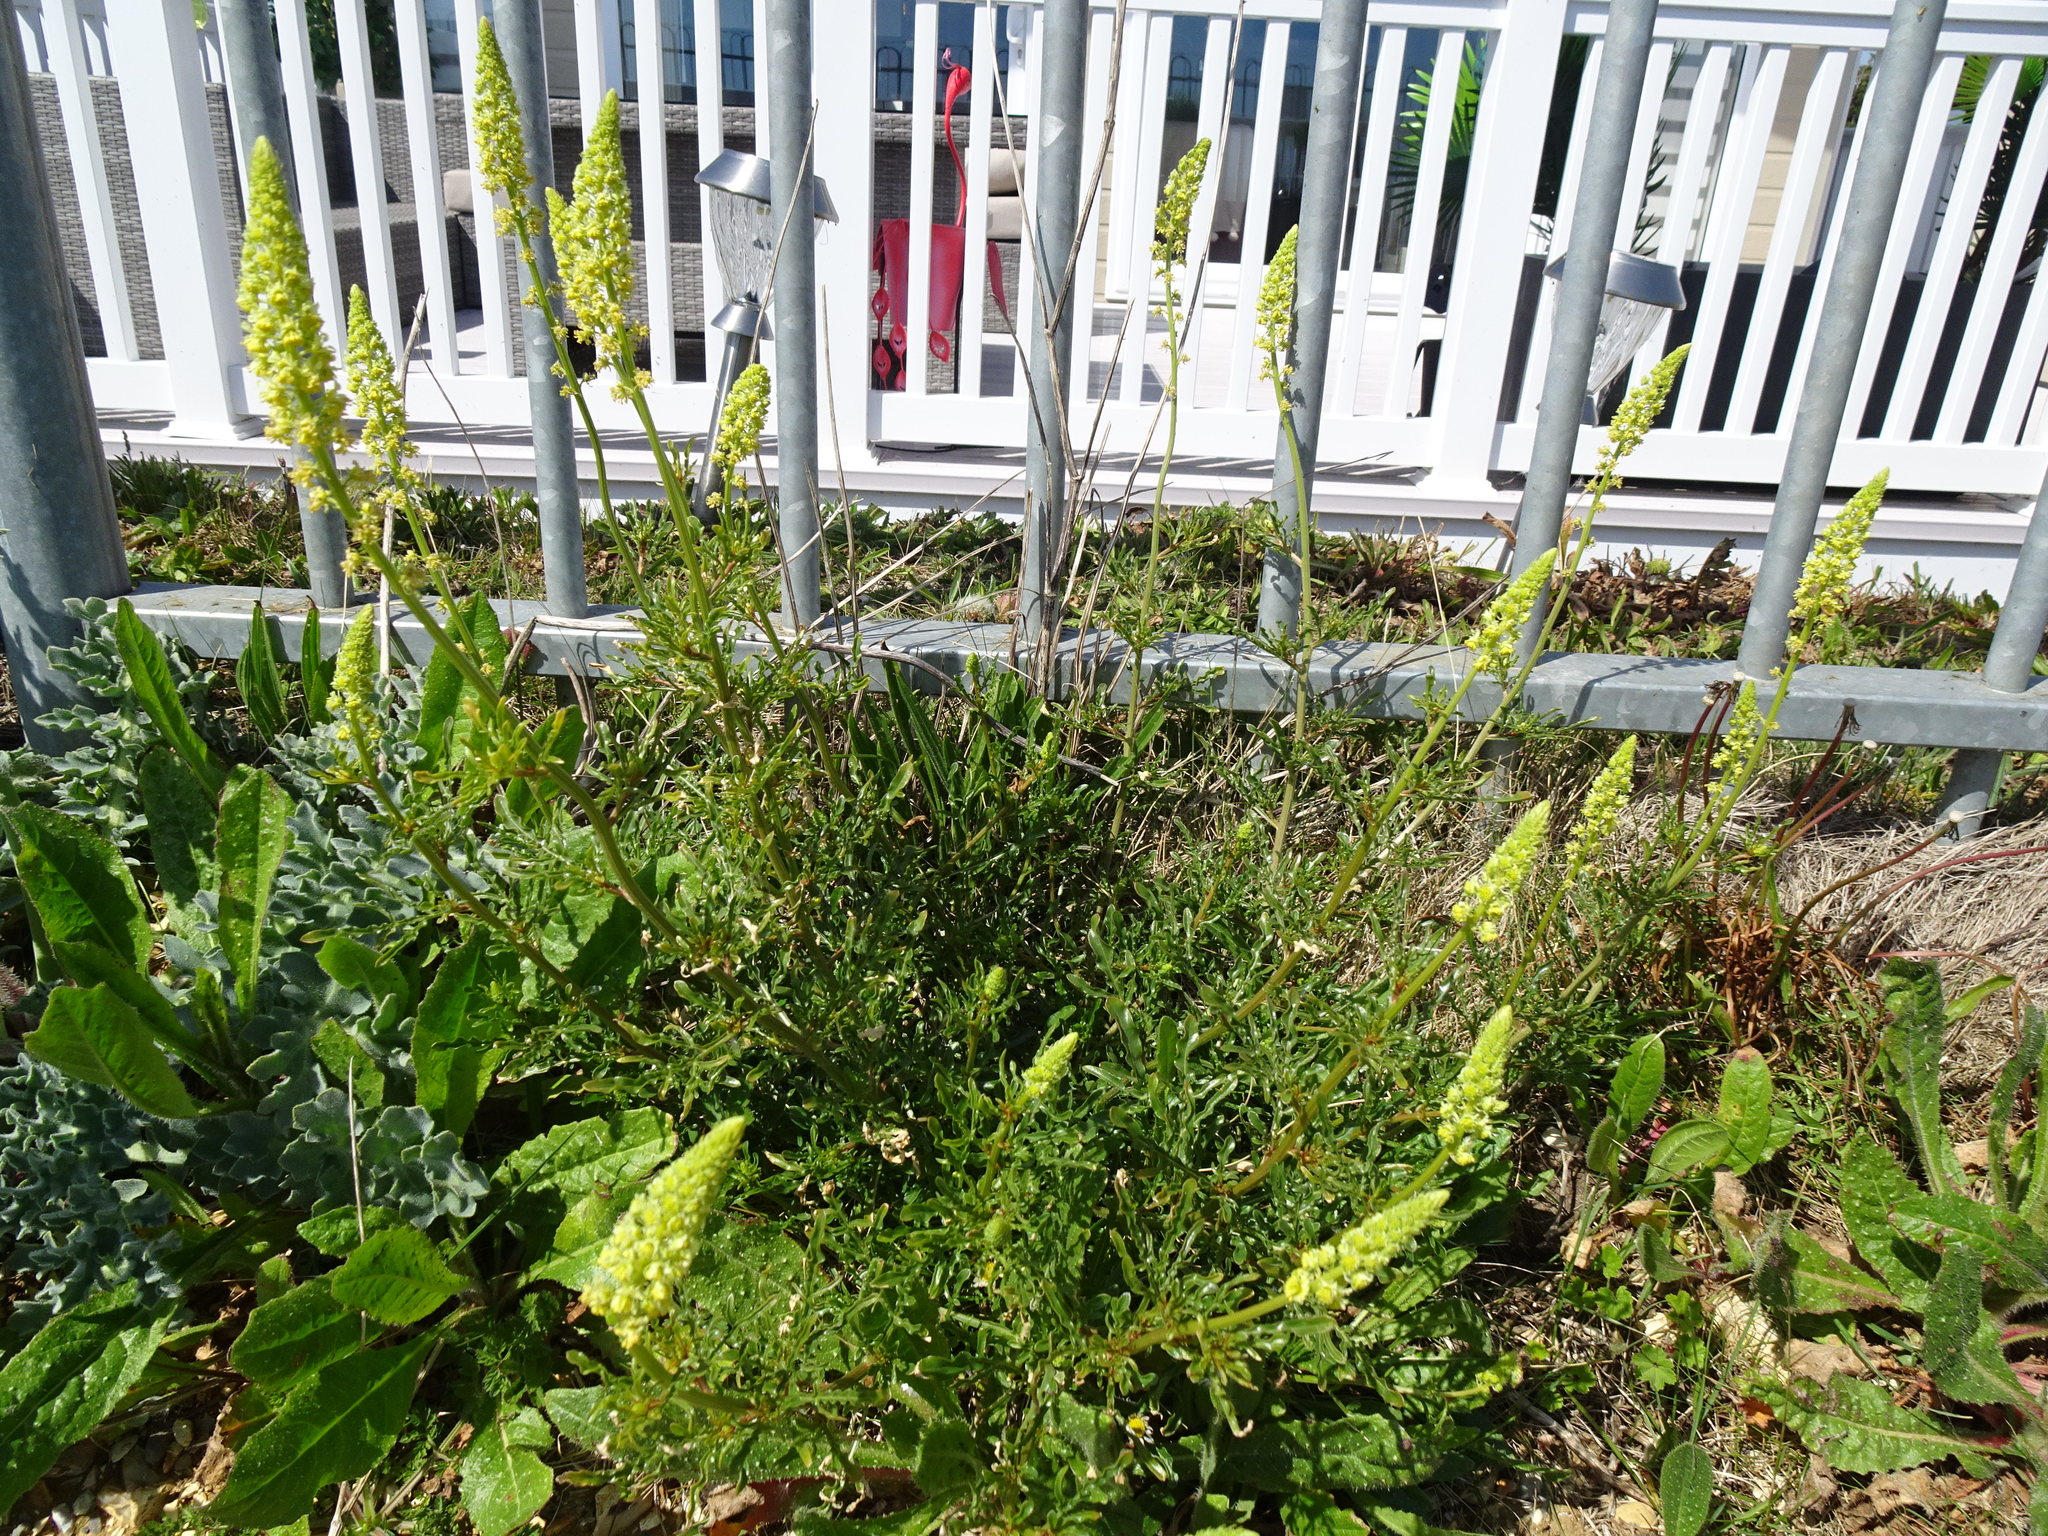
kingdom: Plantae
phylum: Tracheophyta
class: Magnoliopsida
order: Brassicales
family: Resedaceae
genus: Reseda
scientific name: Reseda lutea
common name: Wild mignonette
